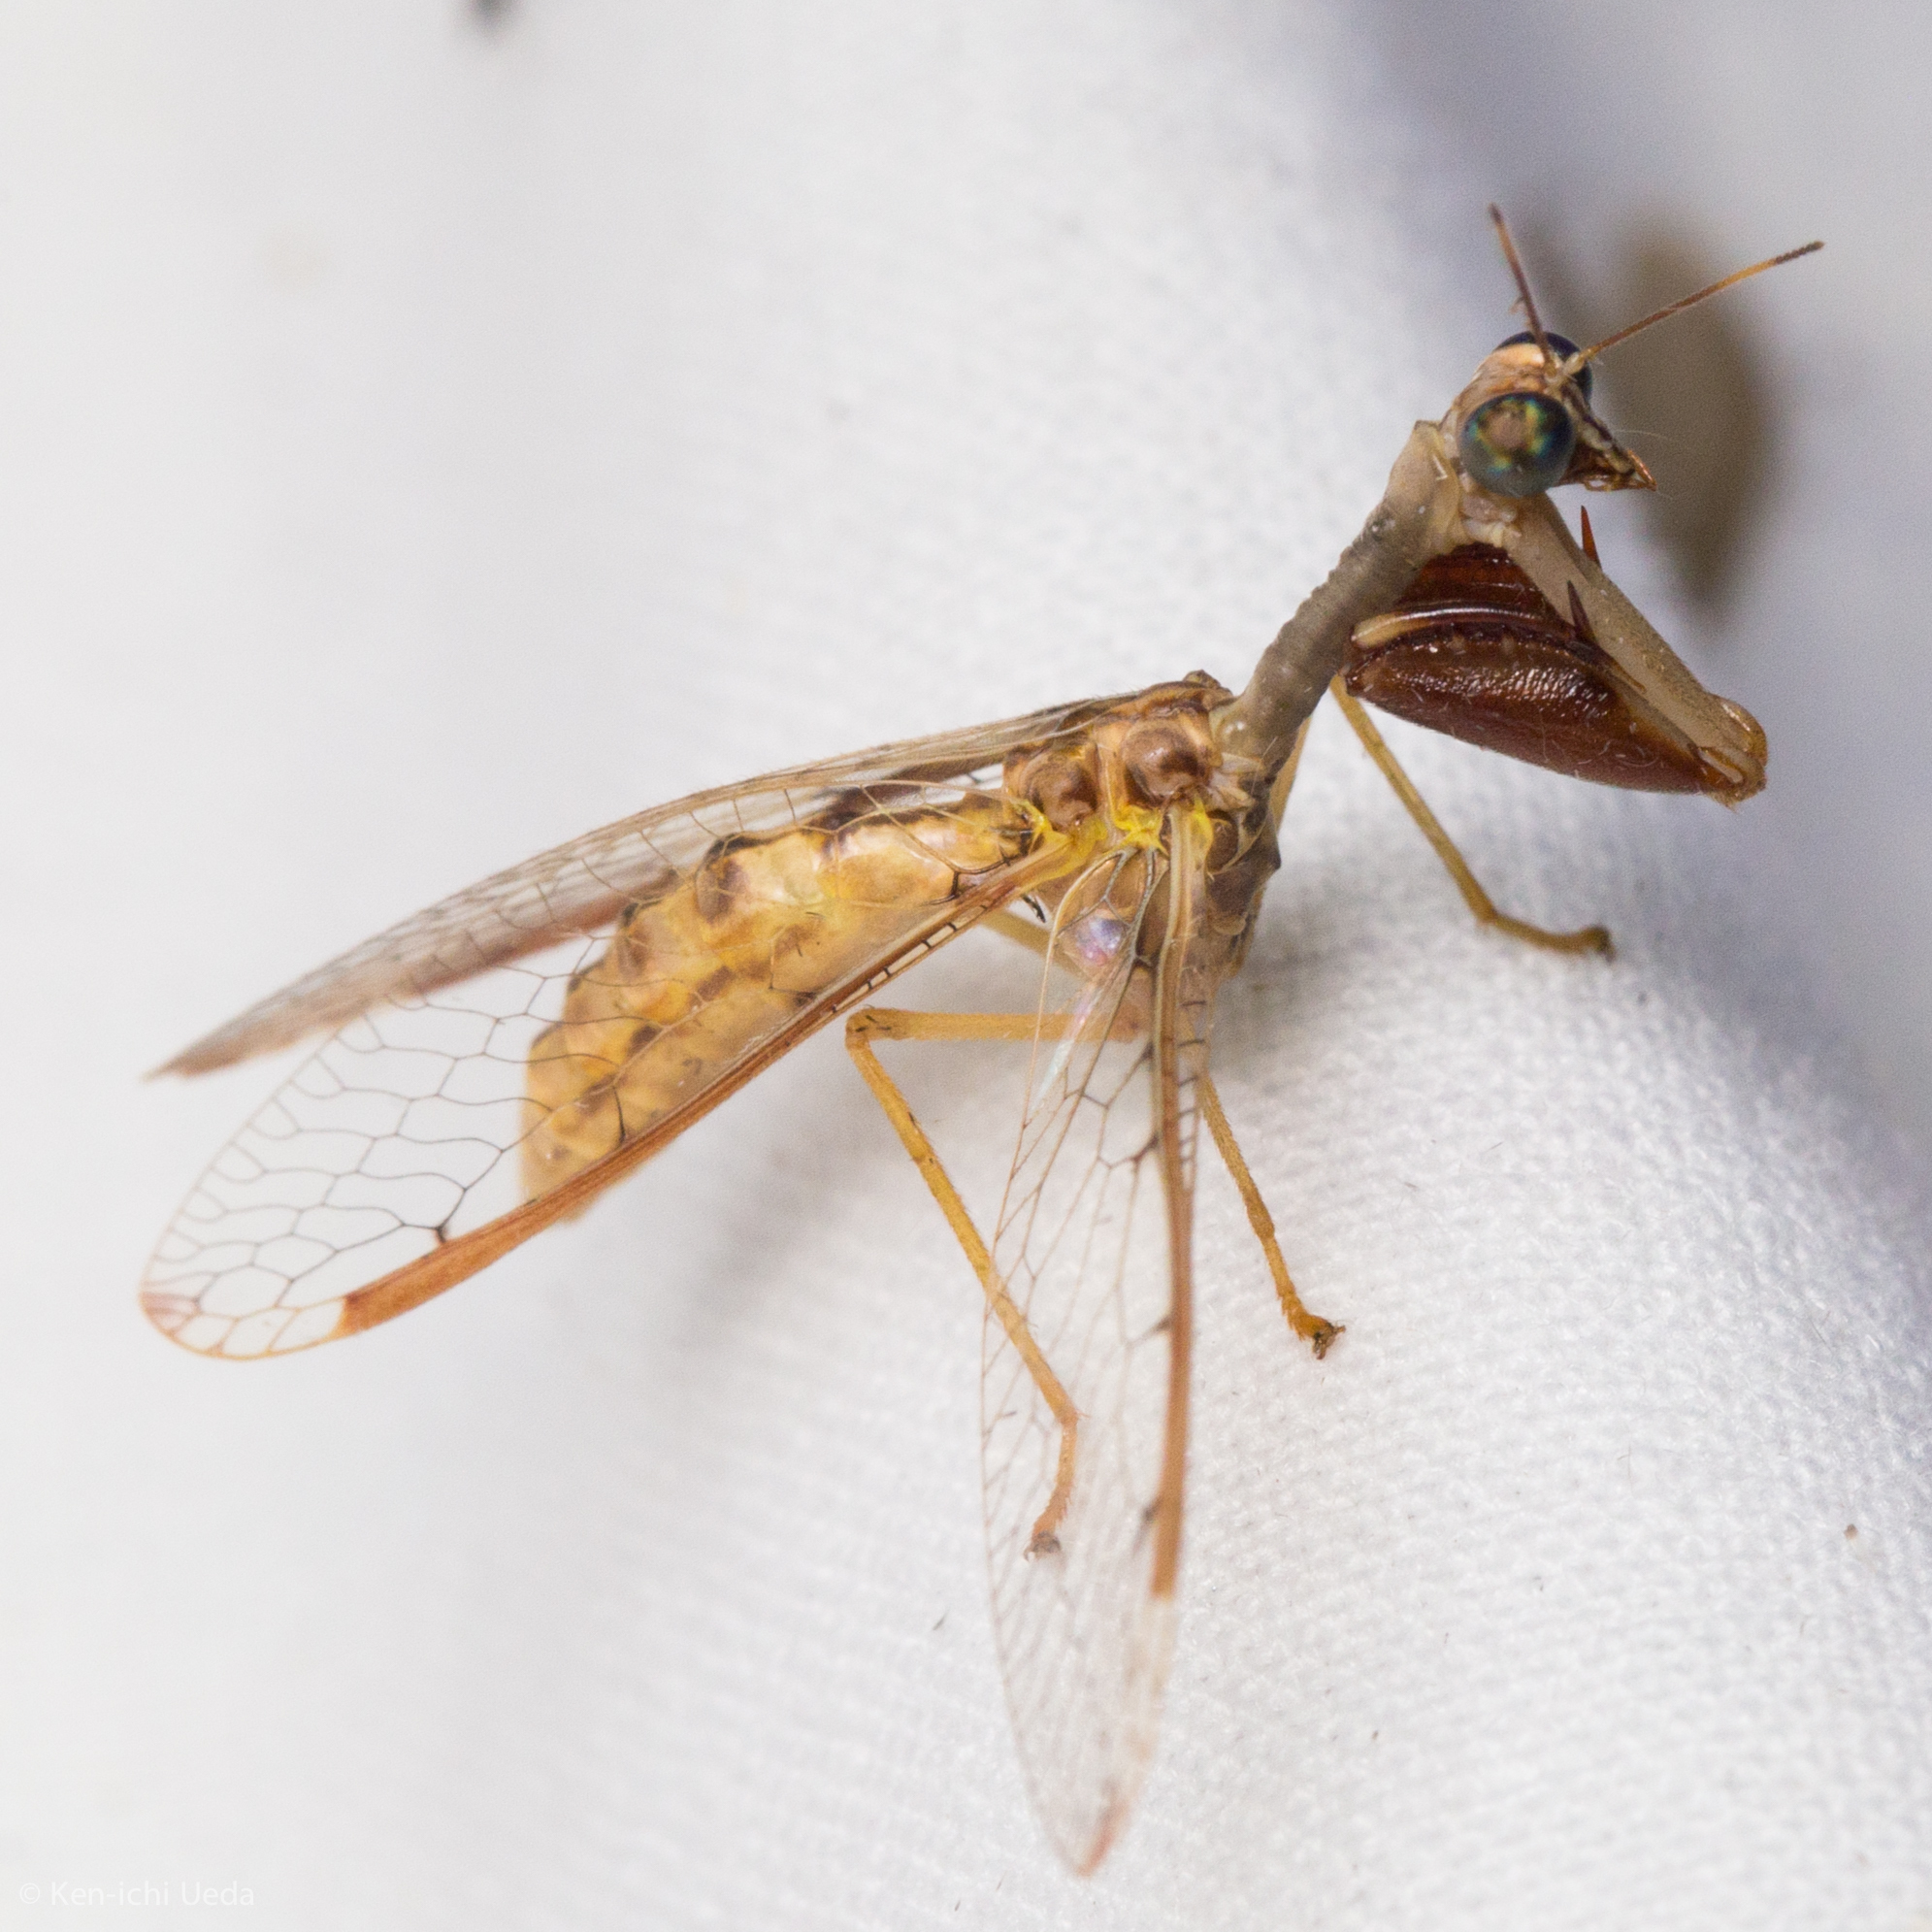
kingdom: Animalia
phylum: Arthropoda
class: Insecta
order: Neuroptera
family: Mantispidae
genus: Dicromantispa
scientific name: Dicromantispa interrupta
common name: Four-spotted mantidfly
